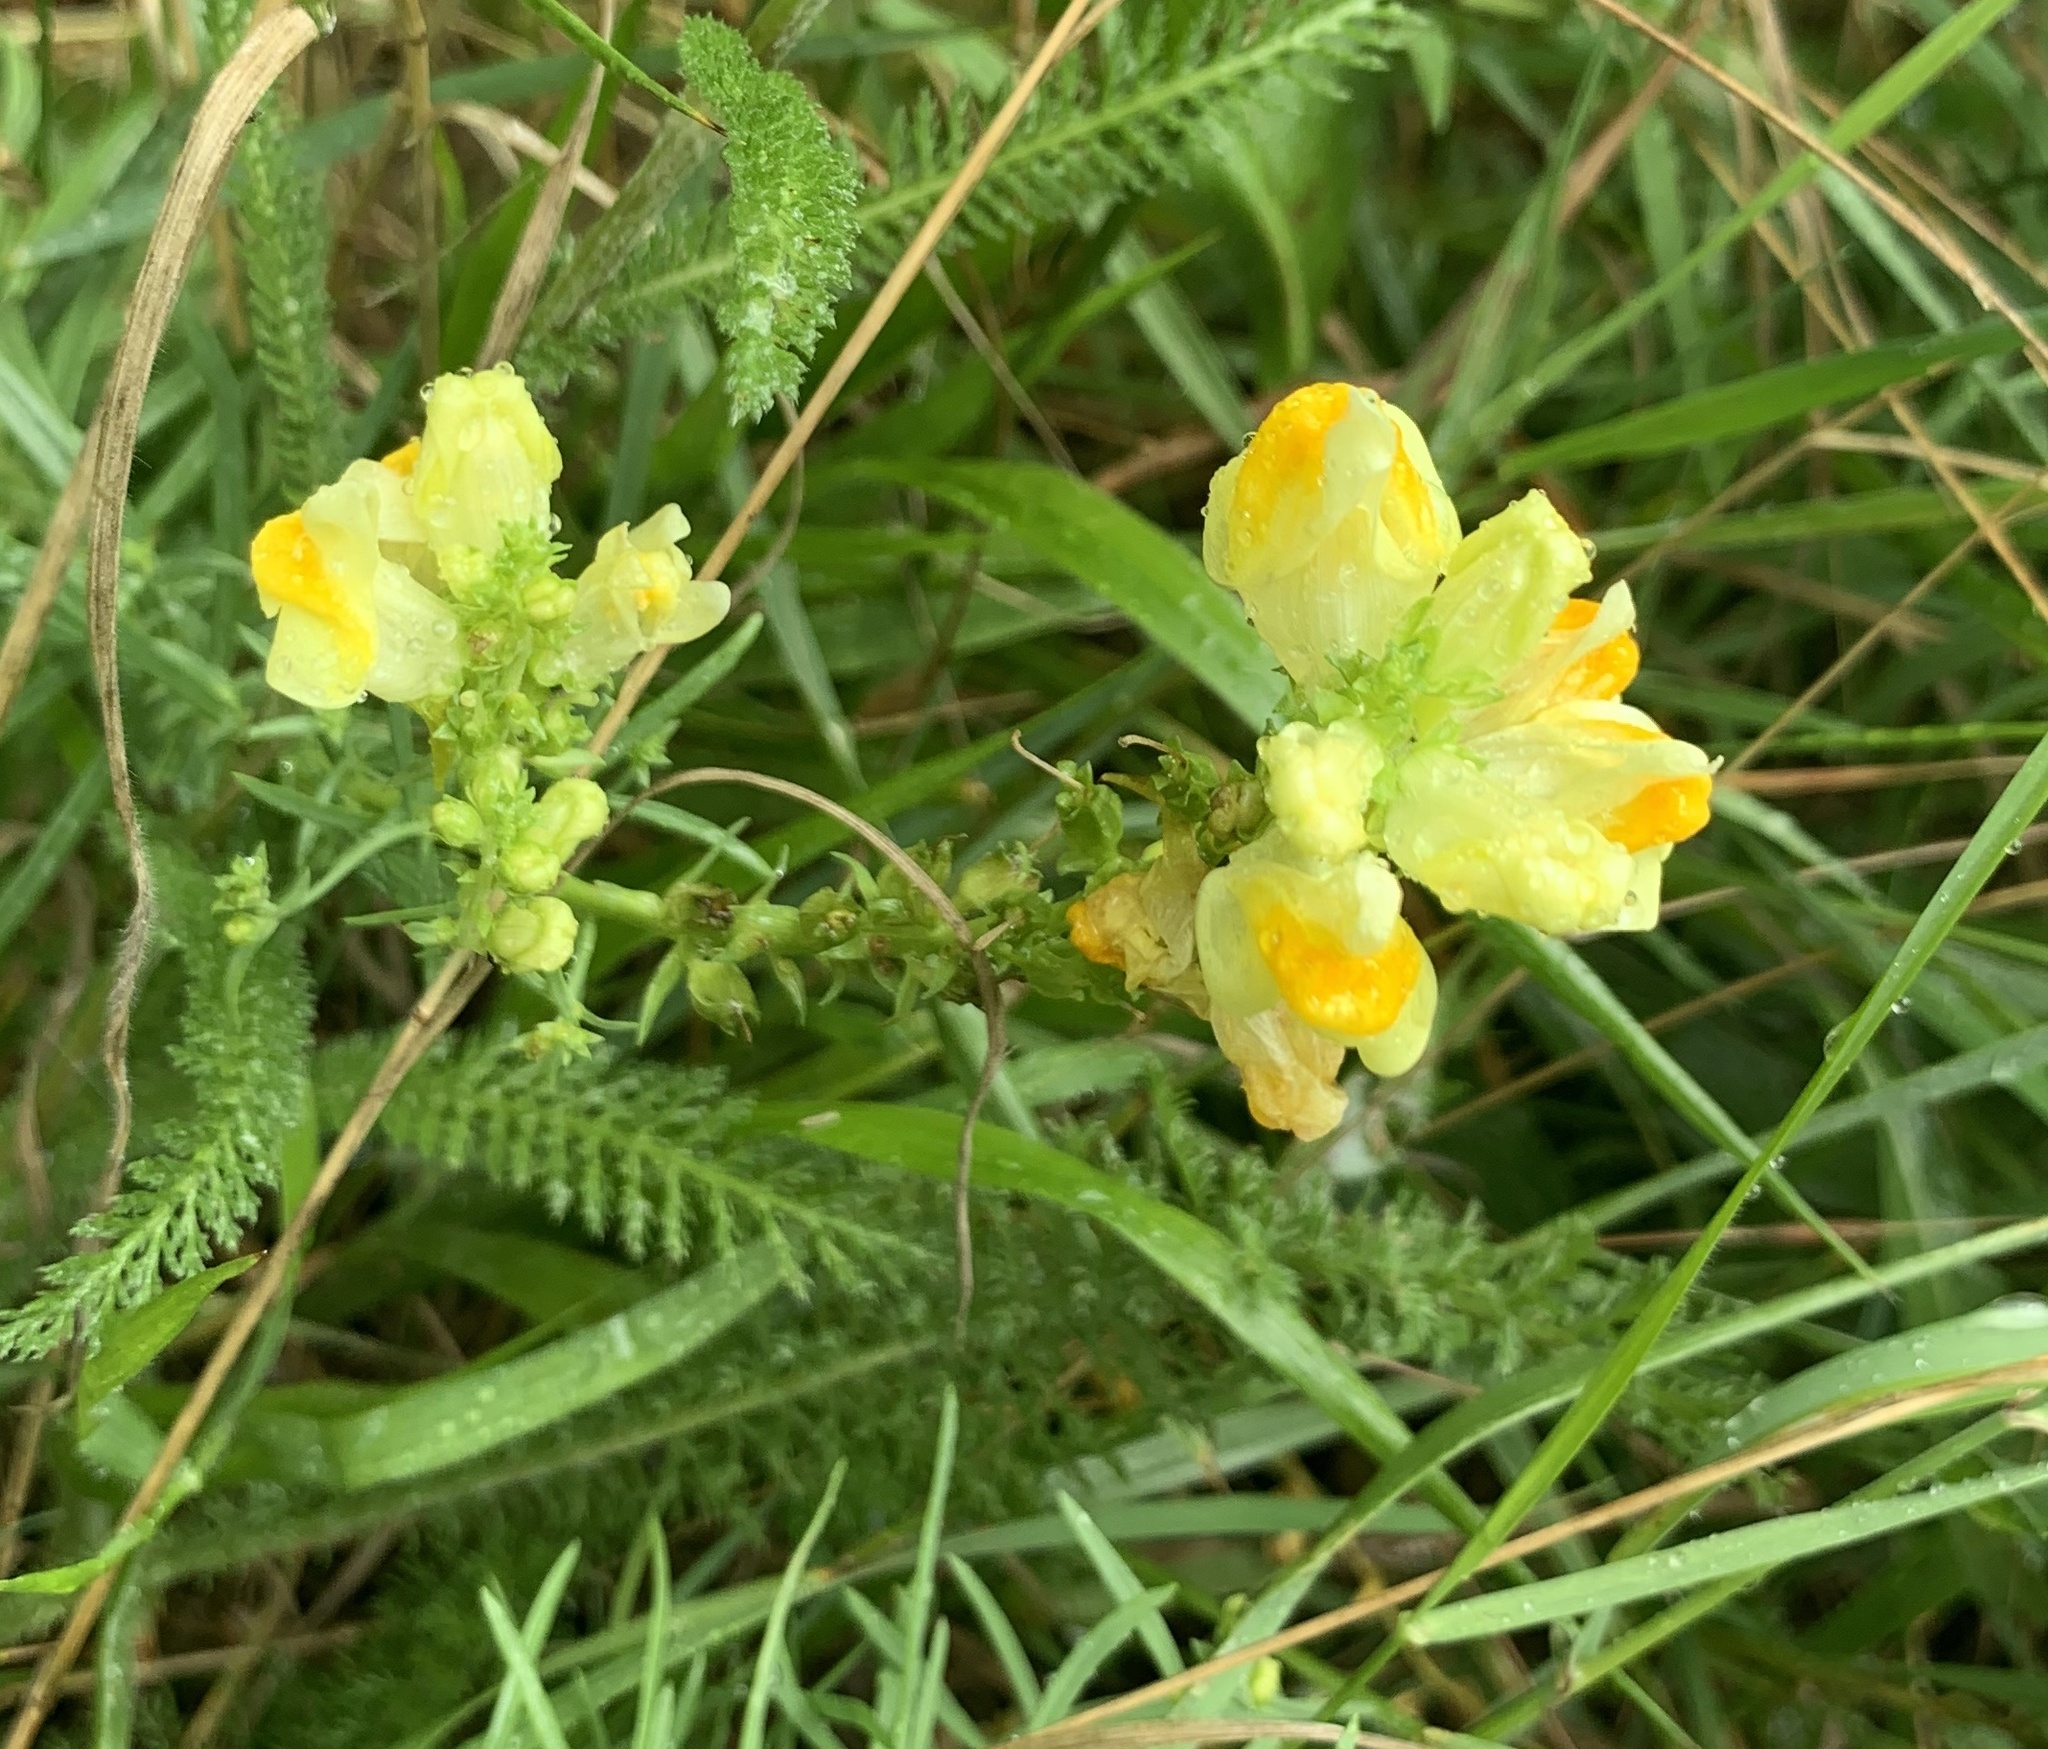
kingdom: Plantae
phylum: Tracheophyta
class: Magnoliopsida
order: Lamiales
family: Plantaginaceae
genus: Linaria
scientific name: Linaria vulgaris
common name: Butter and eggs
